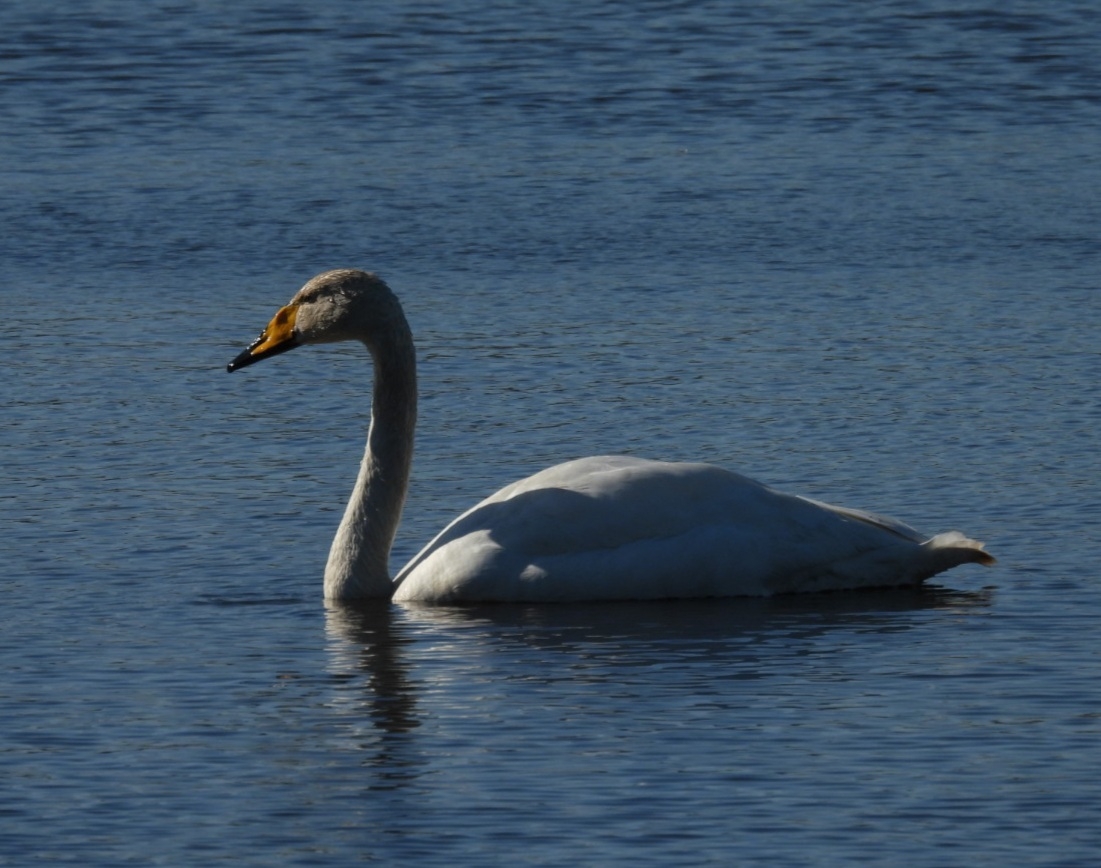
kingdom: Animalia
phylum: Chordata
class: Aves
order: Anseriformes
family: Anatidae
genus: Cygnus
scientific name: Cygnus cygnus
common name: Whooper swan
